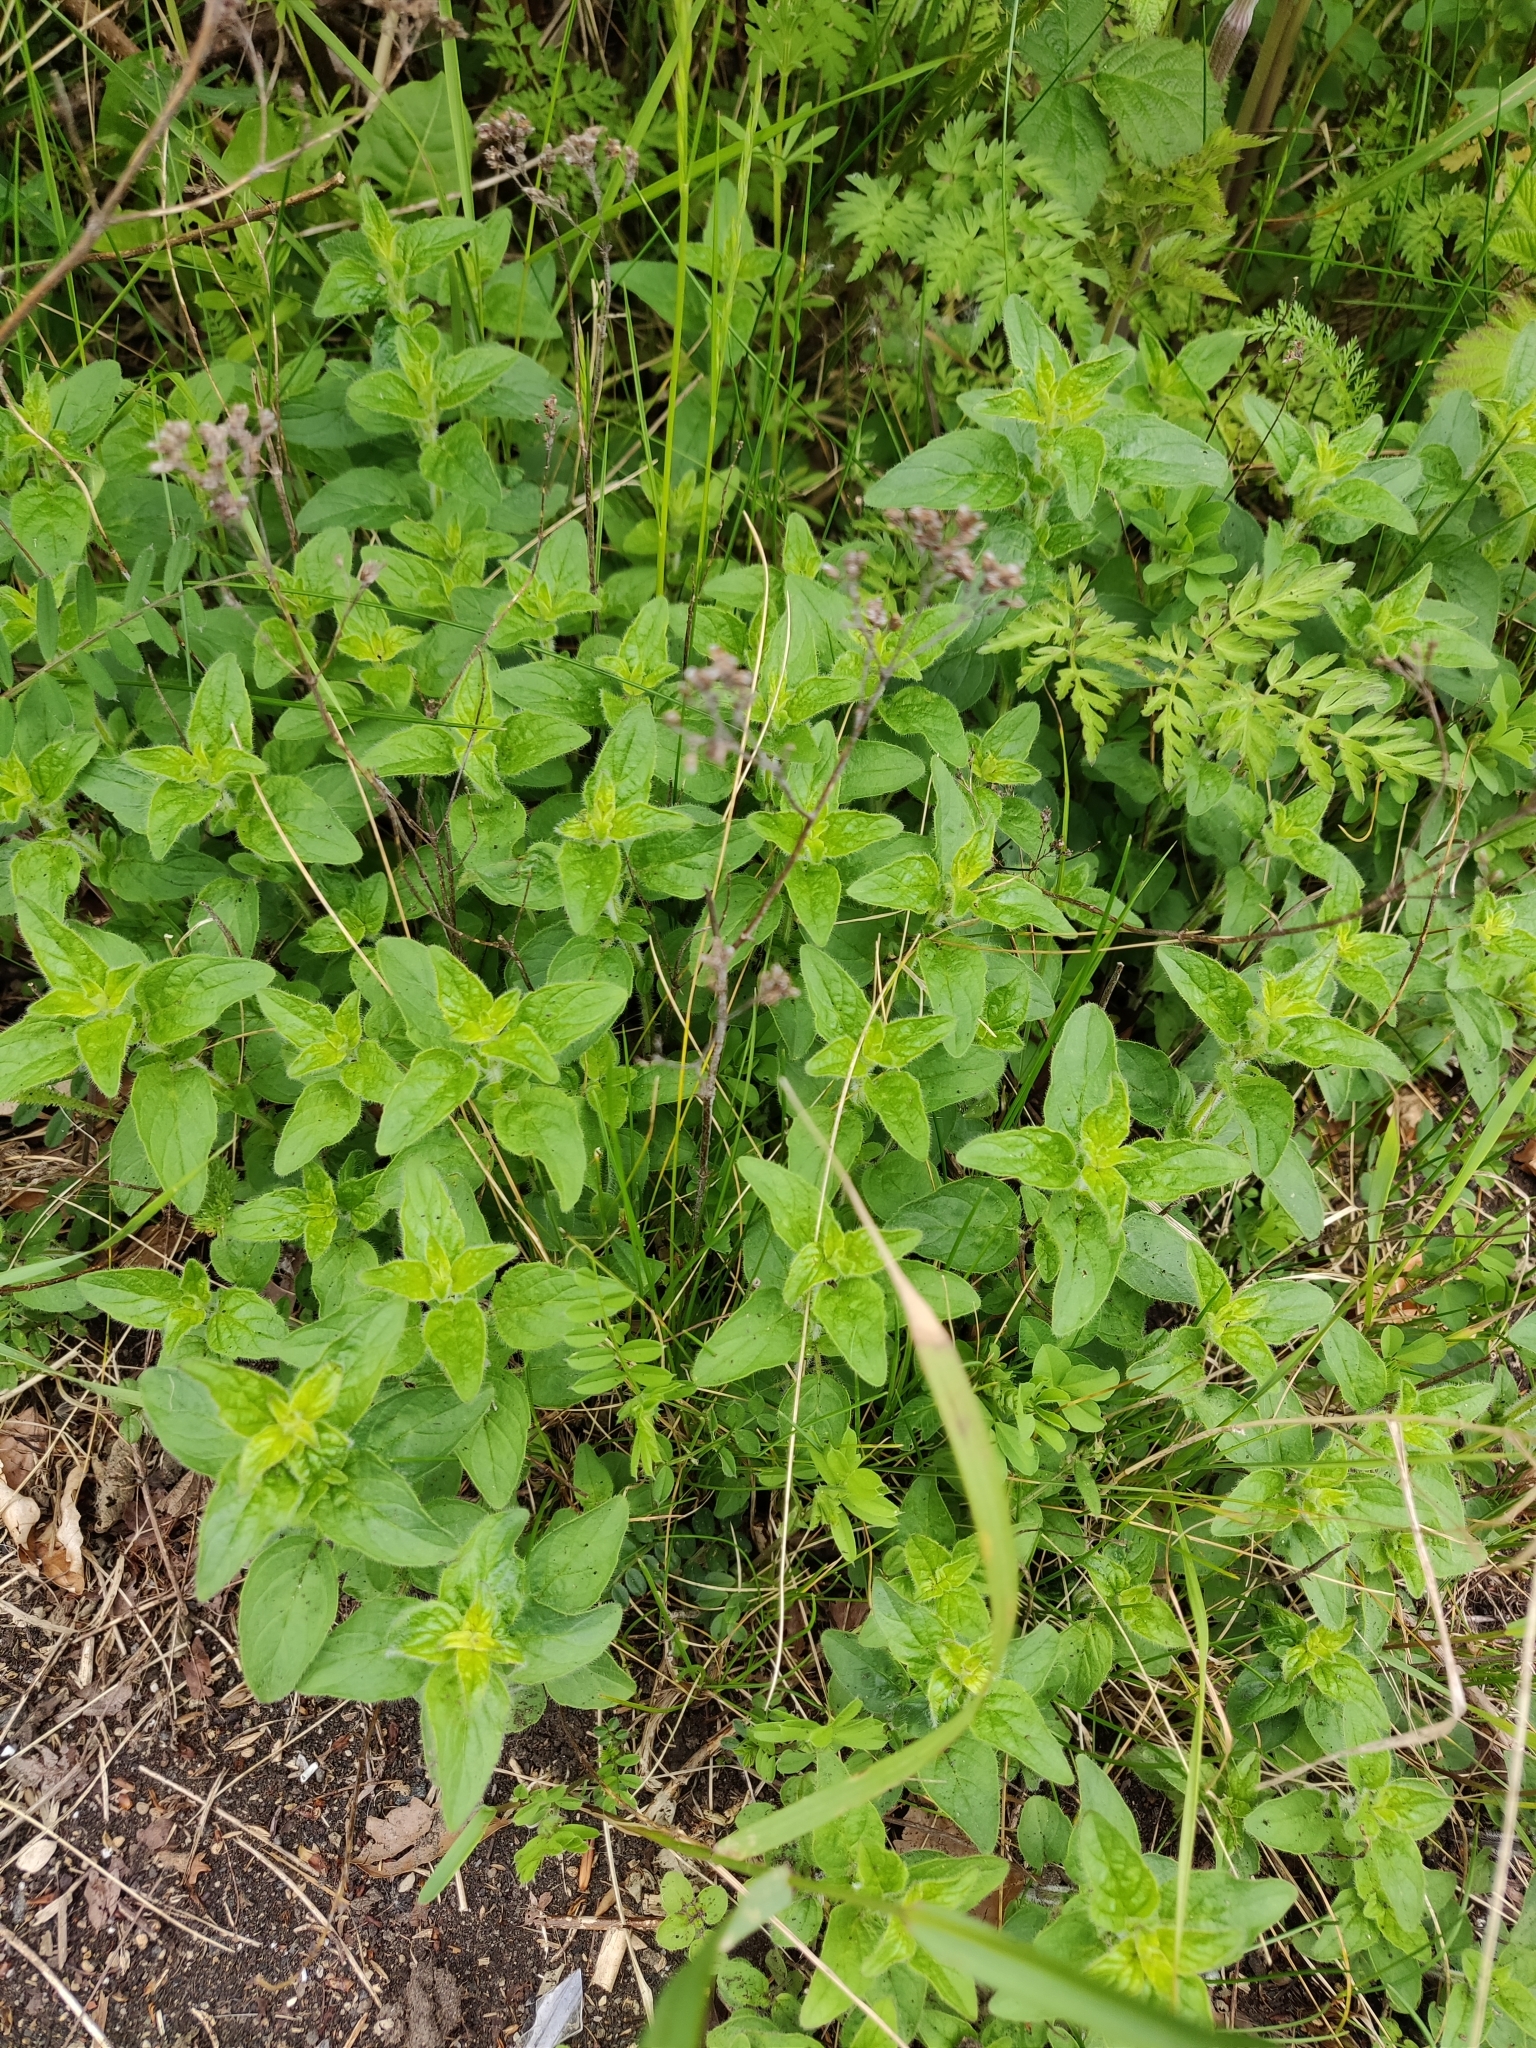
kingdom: Plantae
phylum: Tracheophyta
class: Magnoliopsida
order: Lamiales
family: Lamiaceae
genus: Origanum
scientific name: Origanum vulgare
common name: Wild marjoram
